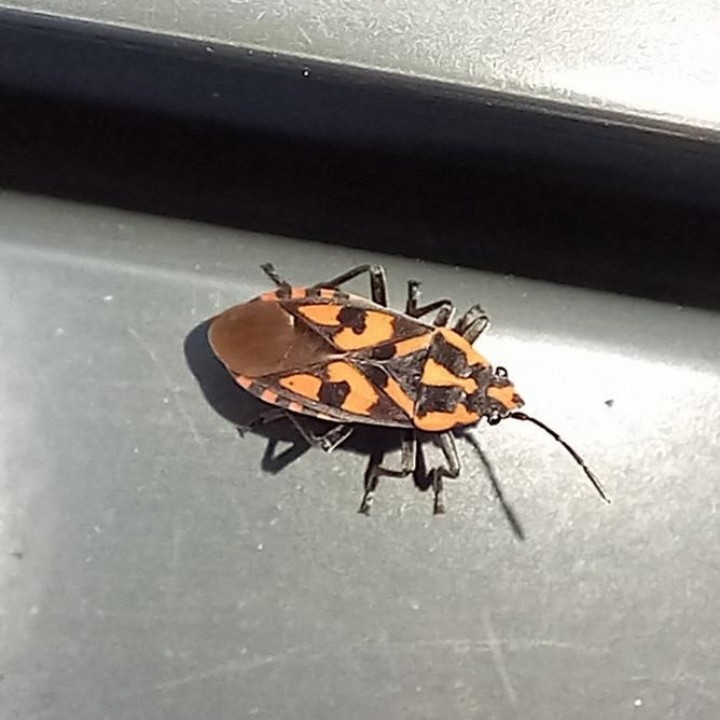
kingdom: Animalia
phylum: Arthropoda
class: Insecta
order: Hemiptera
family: Lygaeidae
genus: Spilostethus
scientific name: Spilostethus saxatilis
